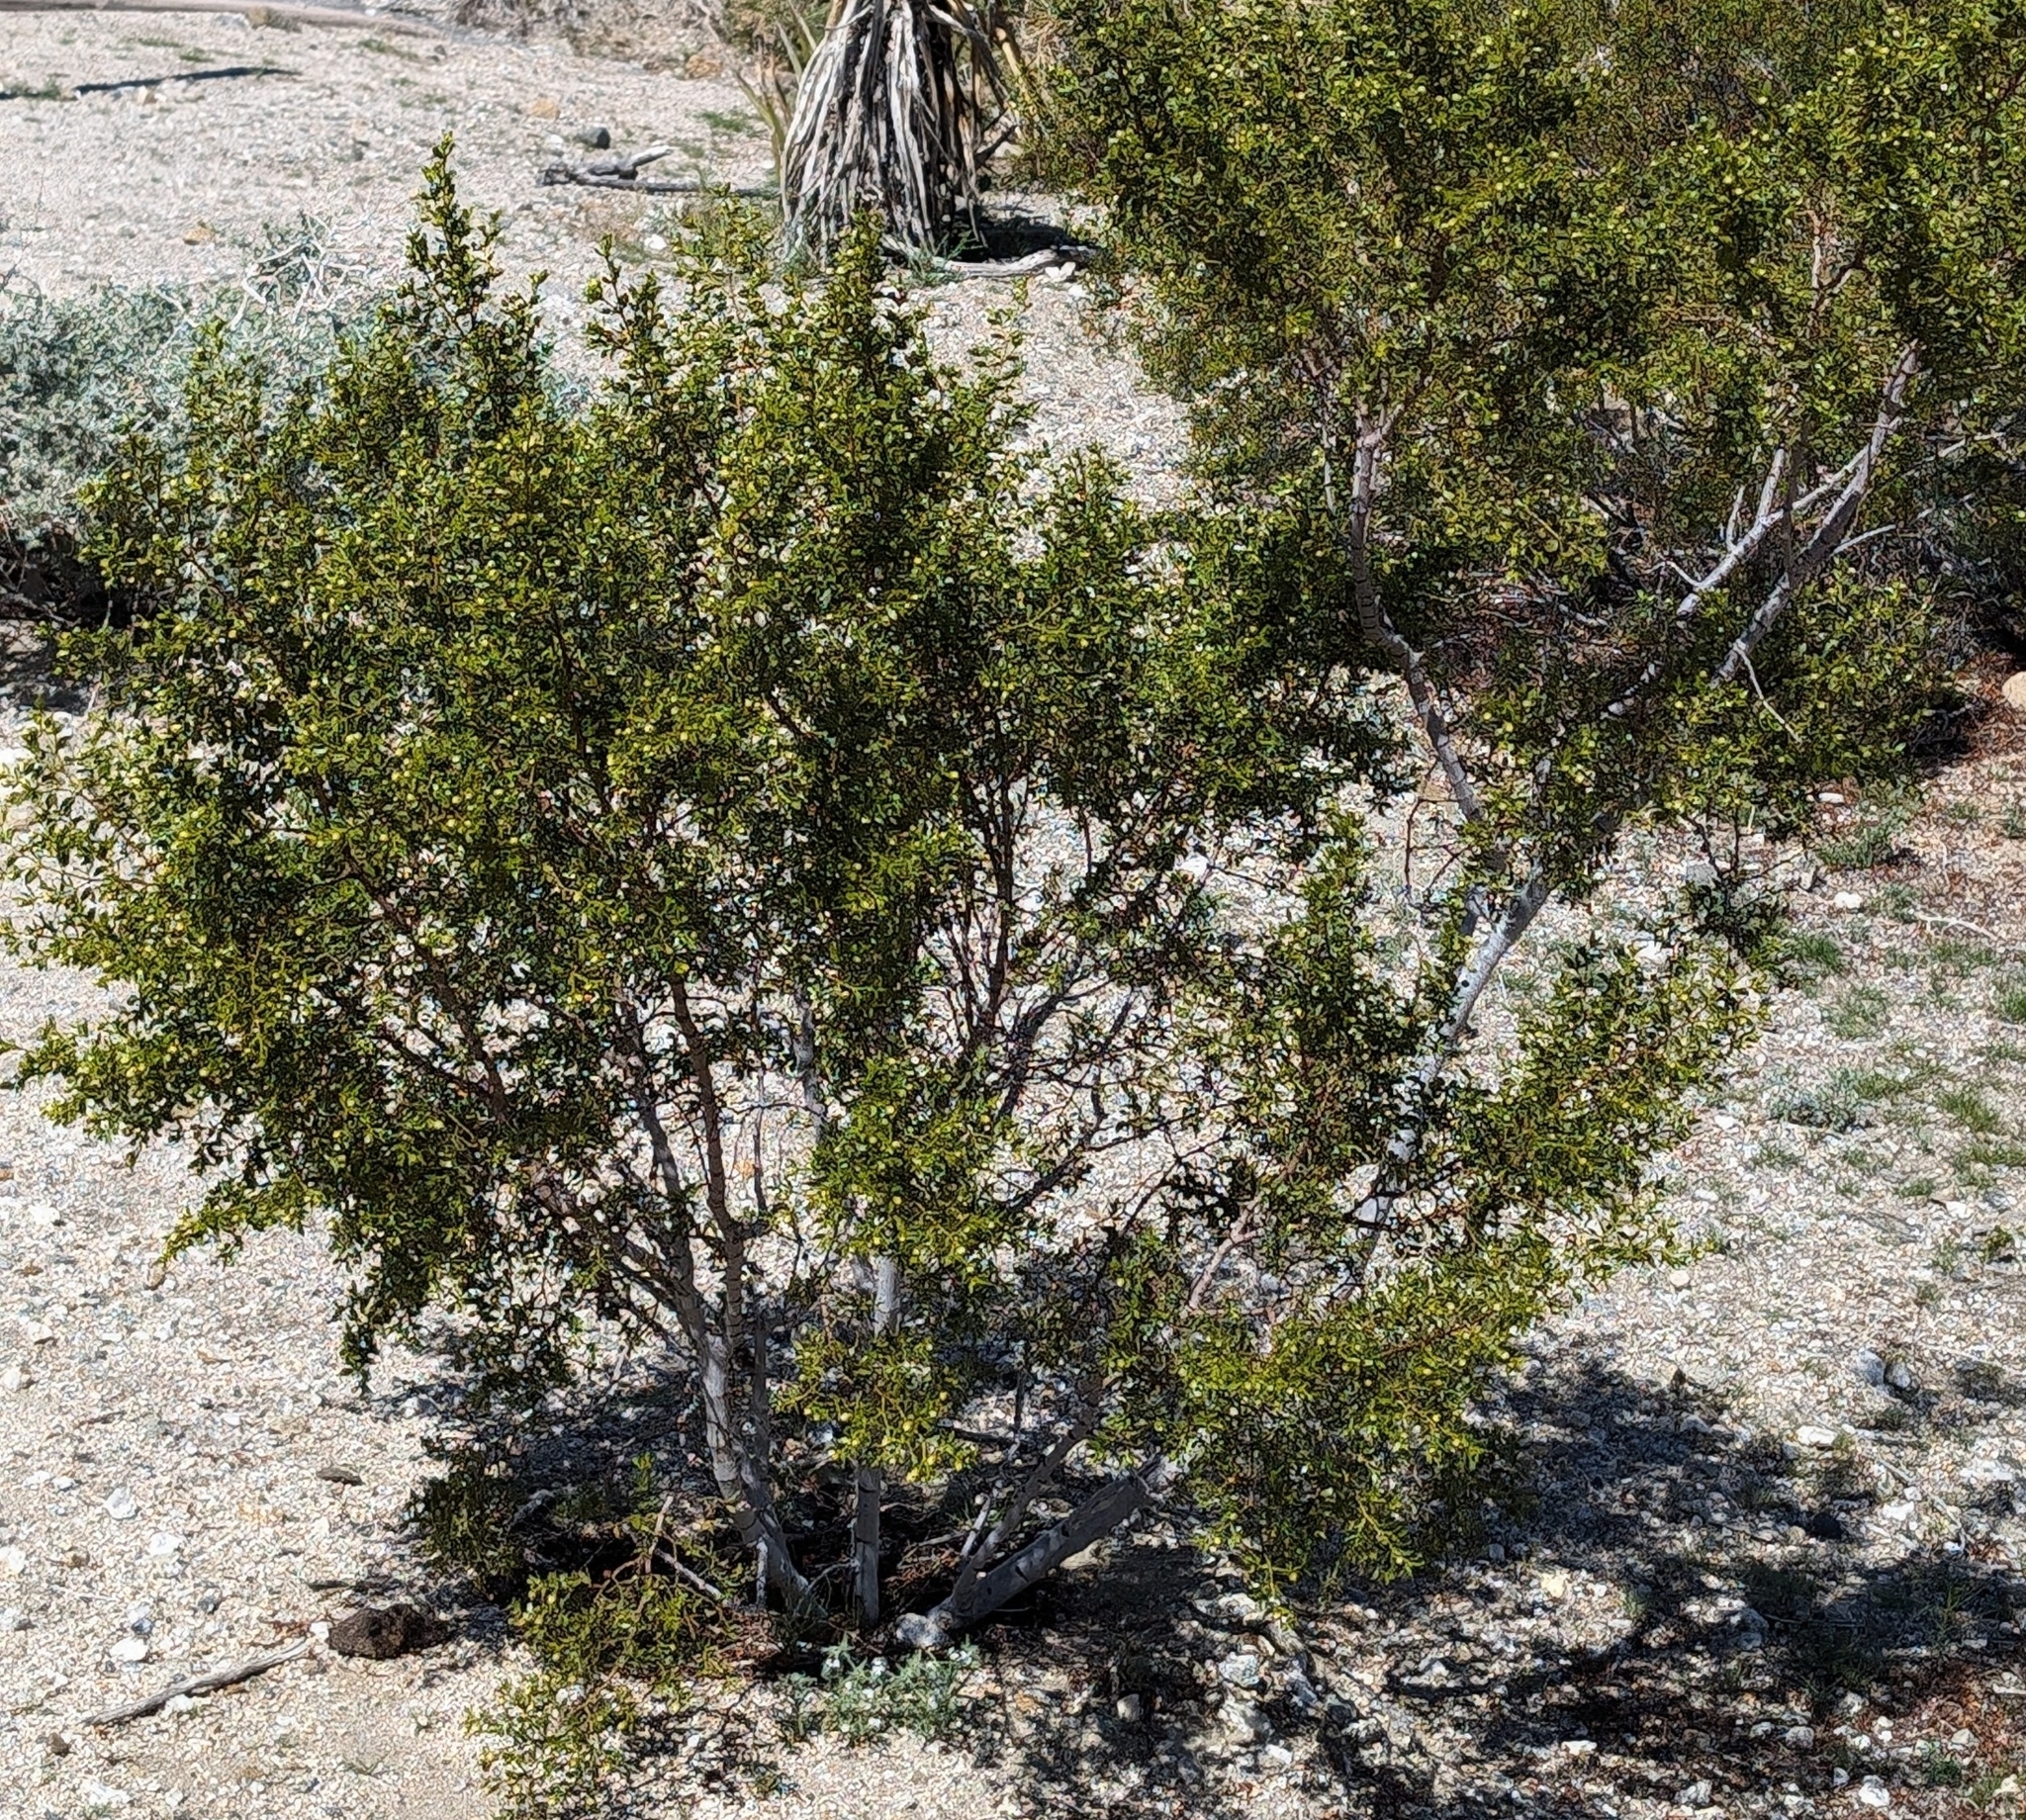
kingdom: Plantae
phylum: Tracheophyta
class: Magnoliopsida
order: Zygophyllales
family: Zygophyllaceae
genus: Larrea
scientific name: Larrea tridentata
